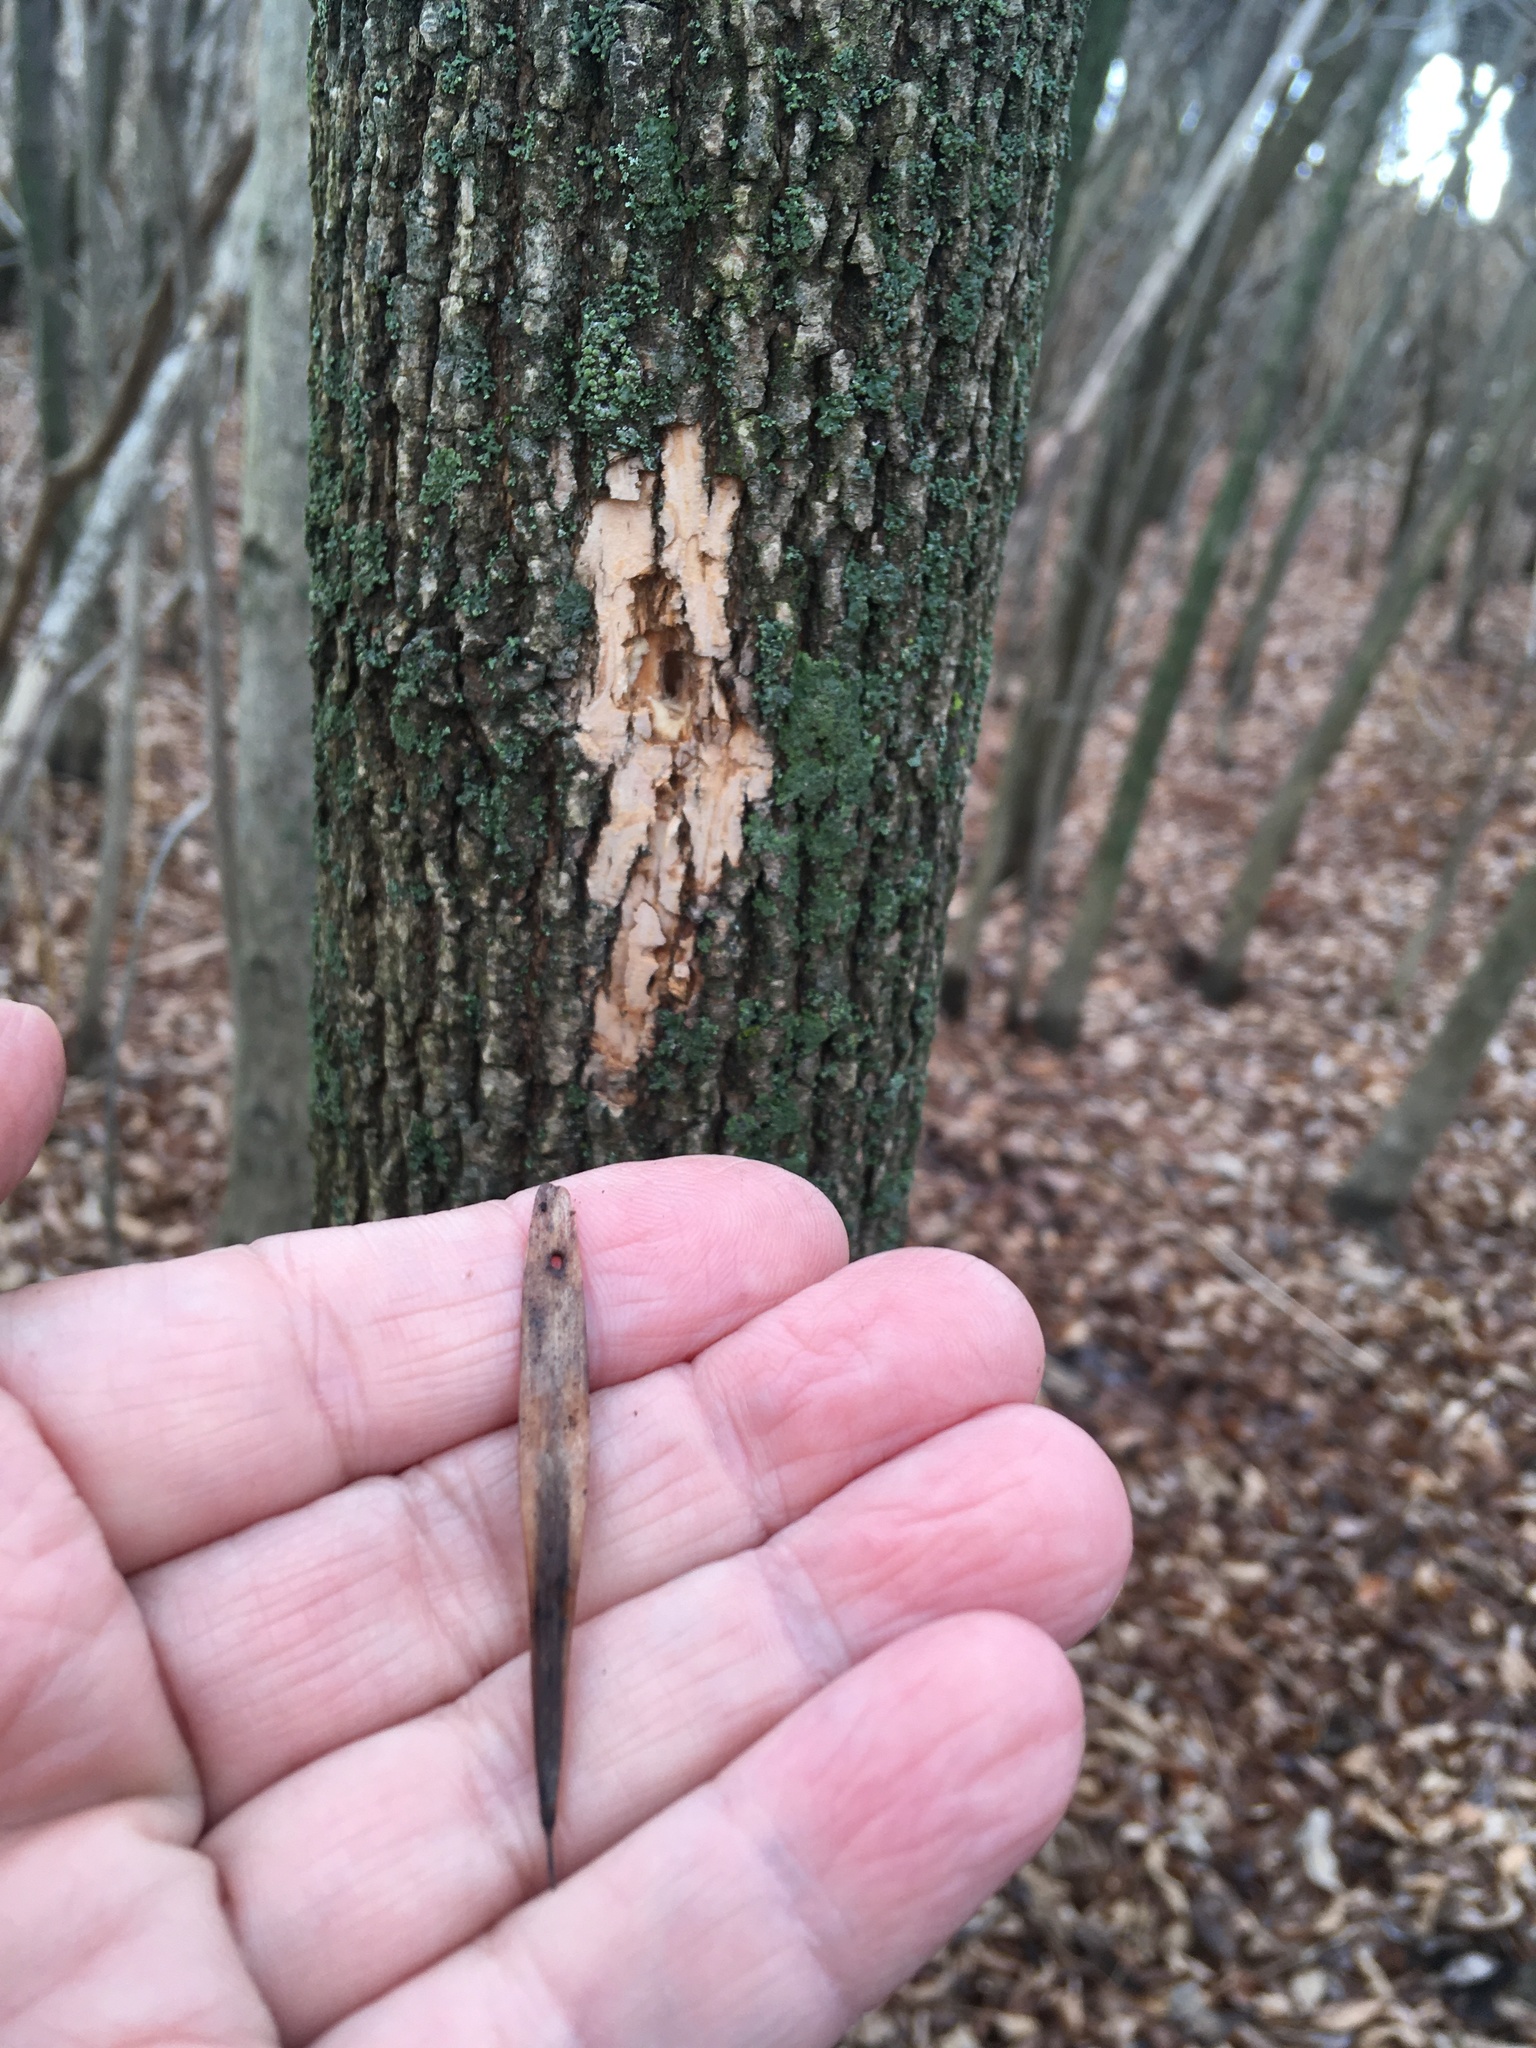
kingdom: Plantae
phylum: Tracheophyta
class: Magnoliopsida
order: Lamiales
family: Oleaceae
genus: Fraxinus
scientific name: Fraxinus pennsylvanica
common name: Green ash
